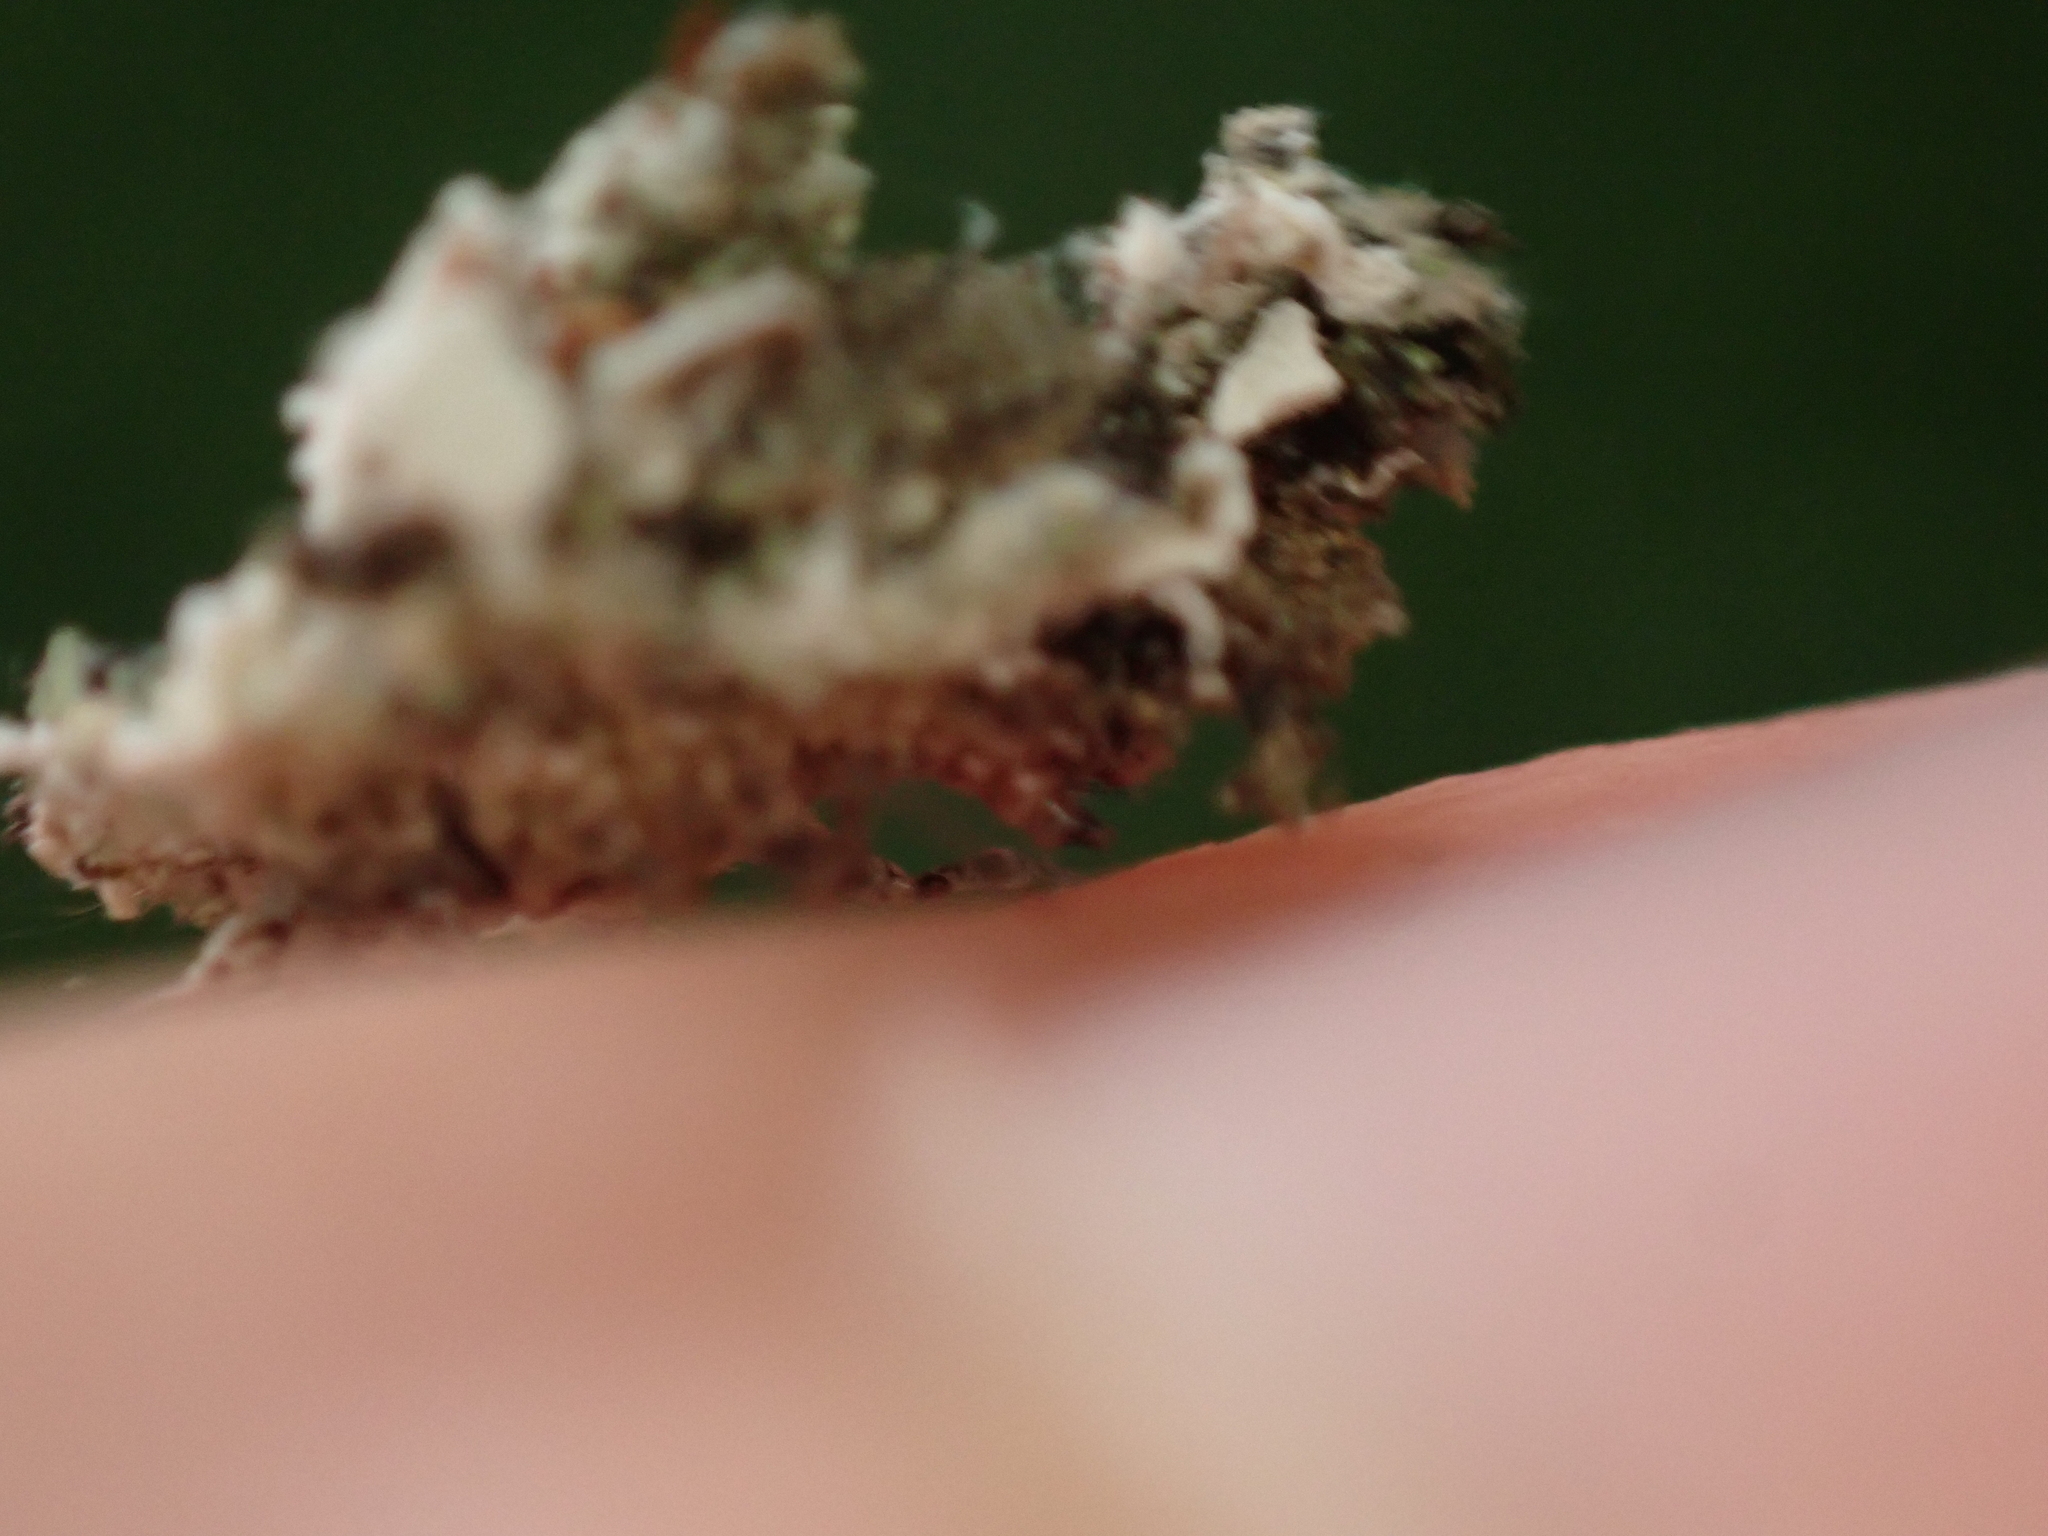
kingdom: Animalia
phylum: Arthropoda
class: Insecta
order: Neuroptera
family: Chrysopidae
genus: Leucochrysa
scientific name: Leucochrysa pavida
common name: Lichen-carrying green lacewing
